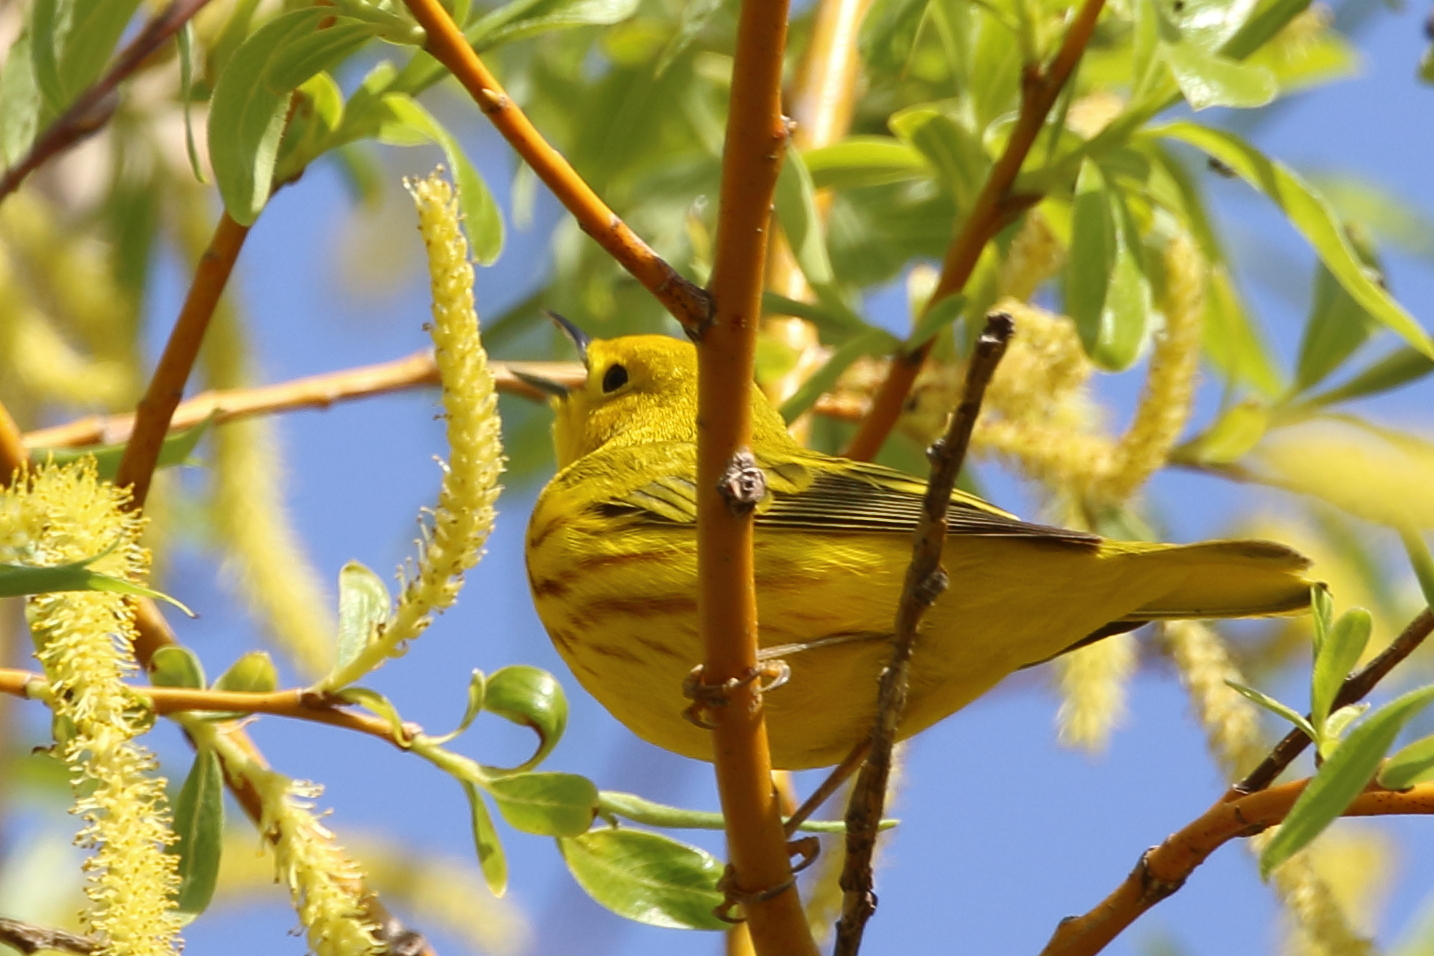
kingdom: Animalia
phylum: Chordata
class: Aves
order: Passeriformes
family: Parulidae
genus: Setophaga
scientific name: Setophaga petechia
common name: Yellow warbler
